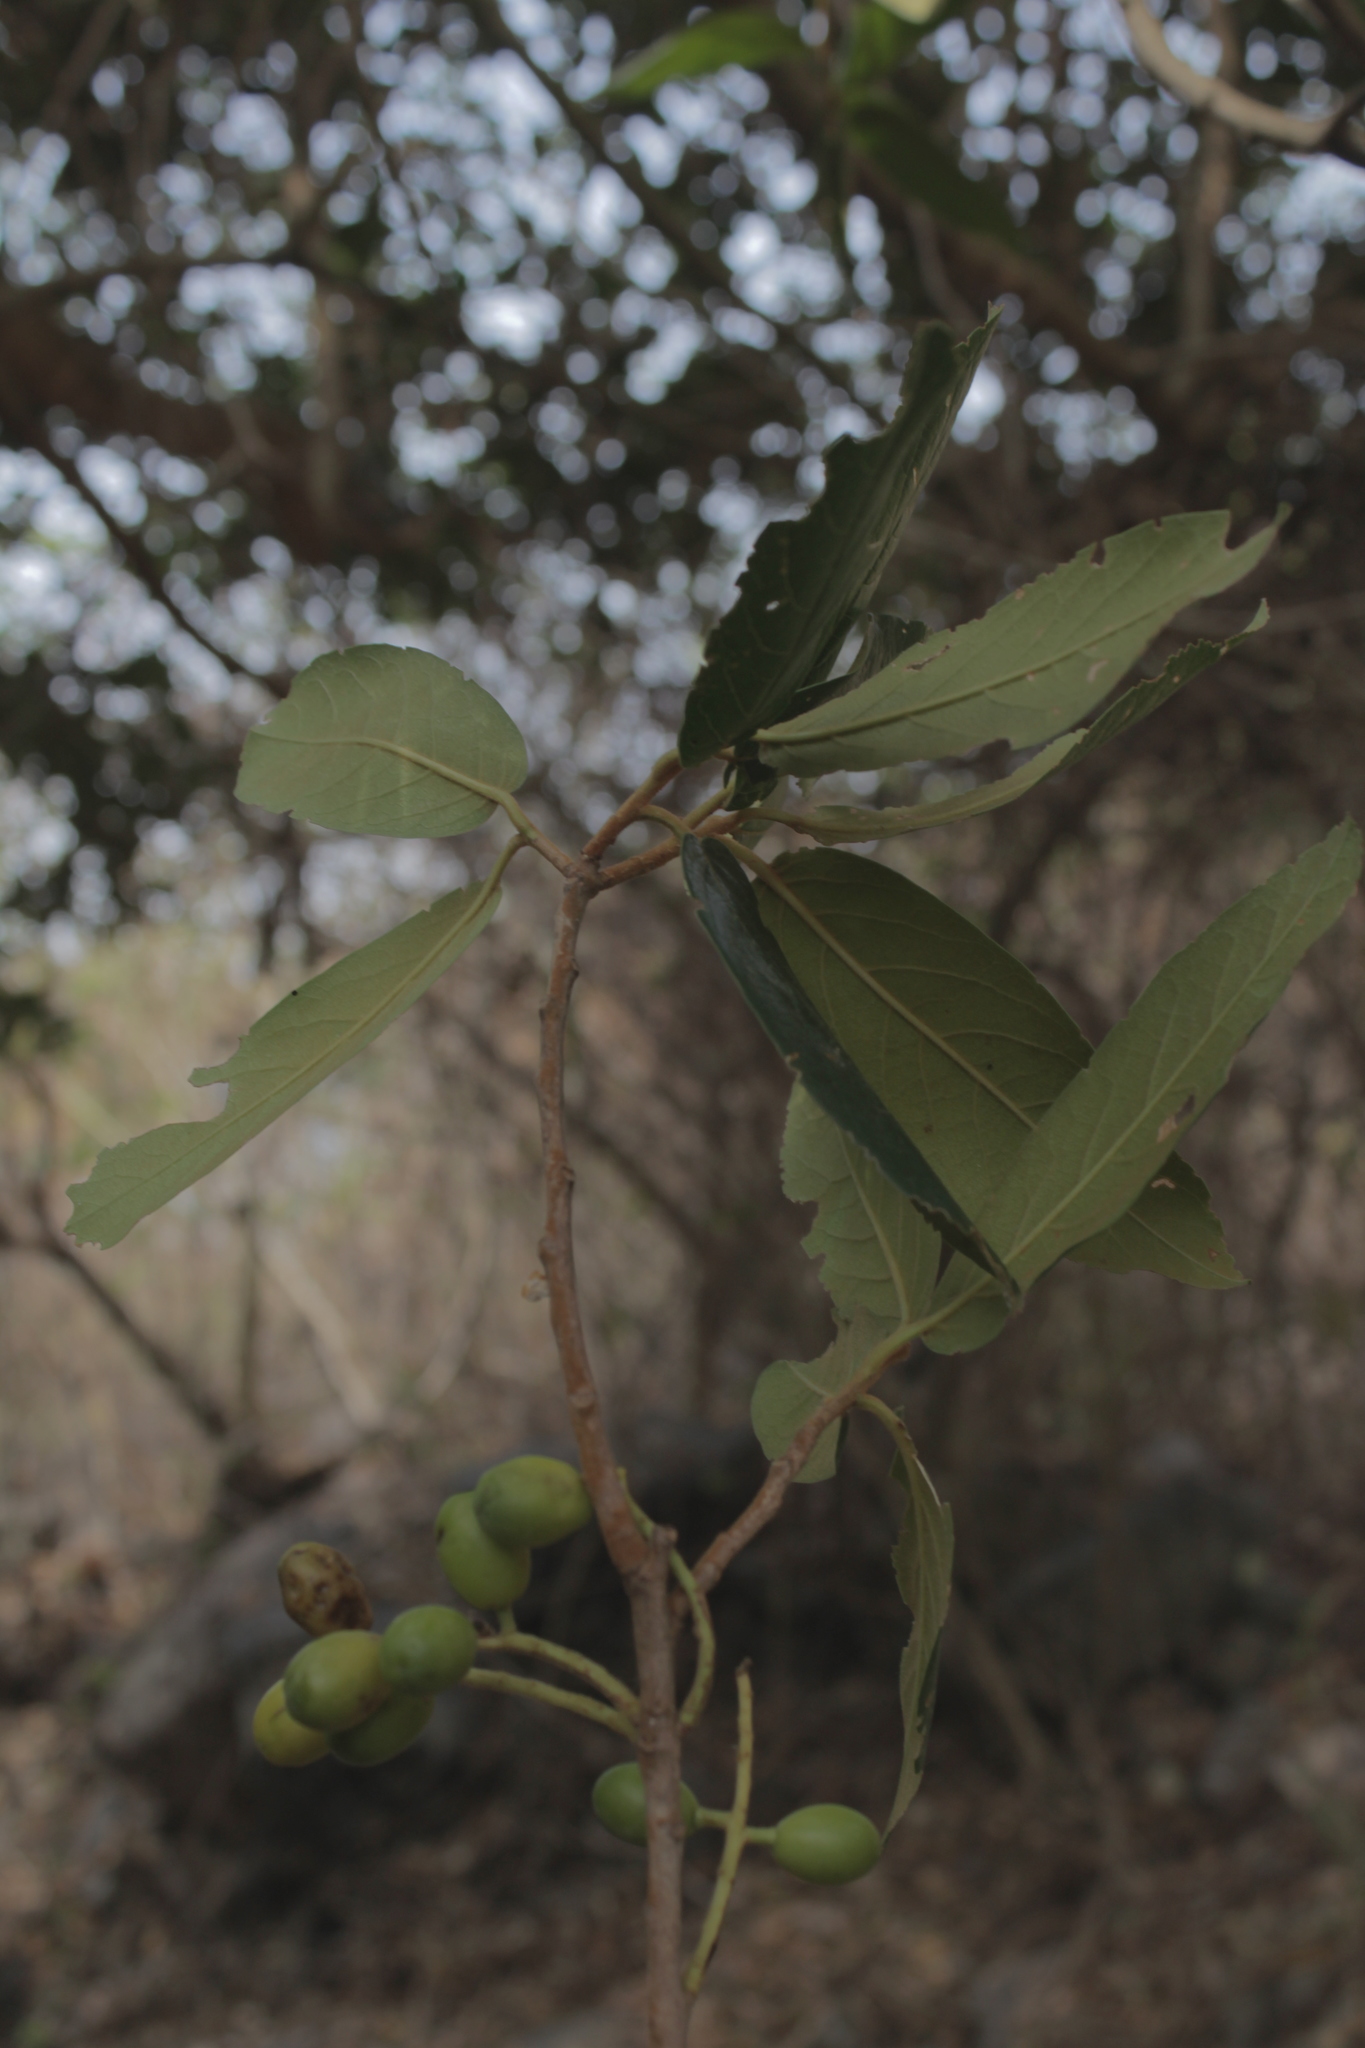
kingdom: Plantae
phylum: Tracheophyta
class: Magnoliopsida
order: Laurales
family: Lauraceae
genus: Persea
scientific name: Persea hintonii
